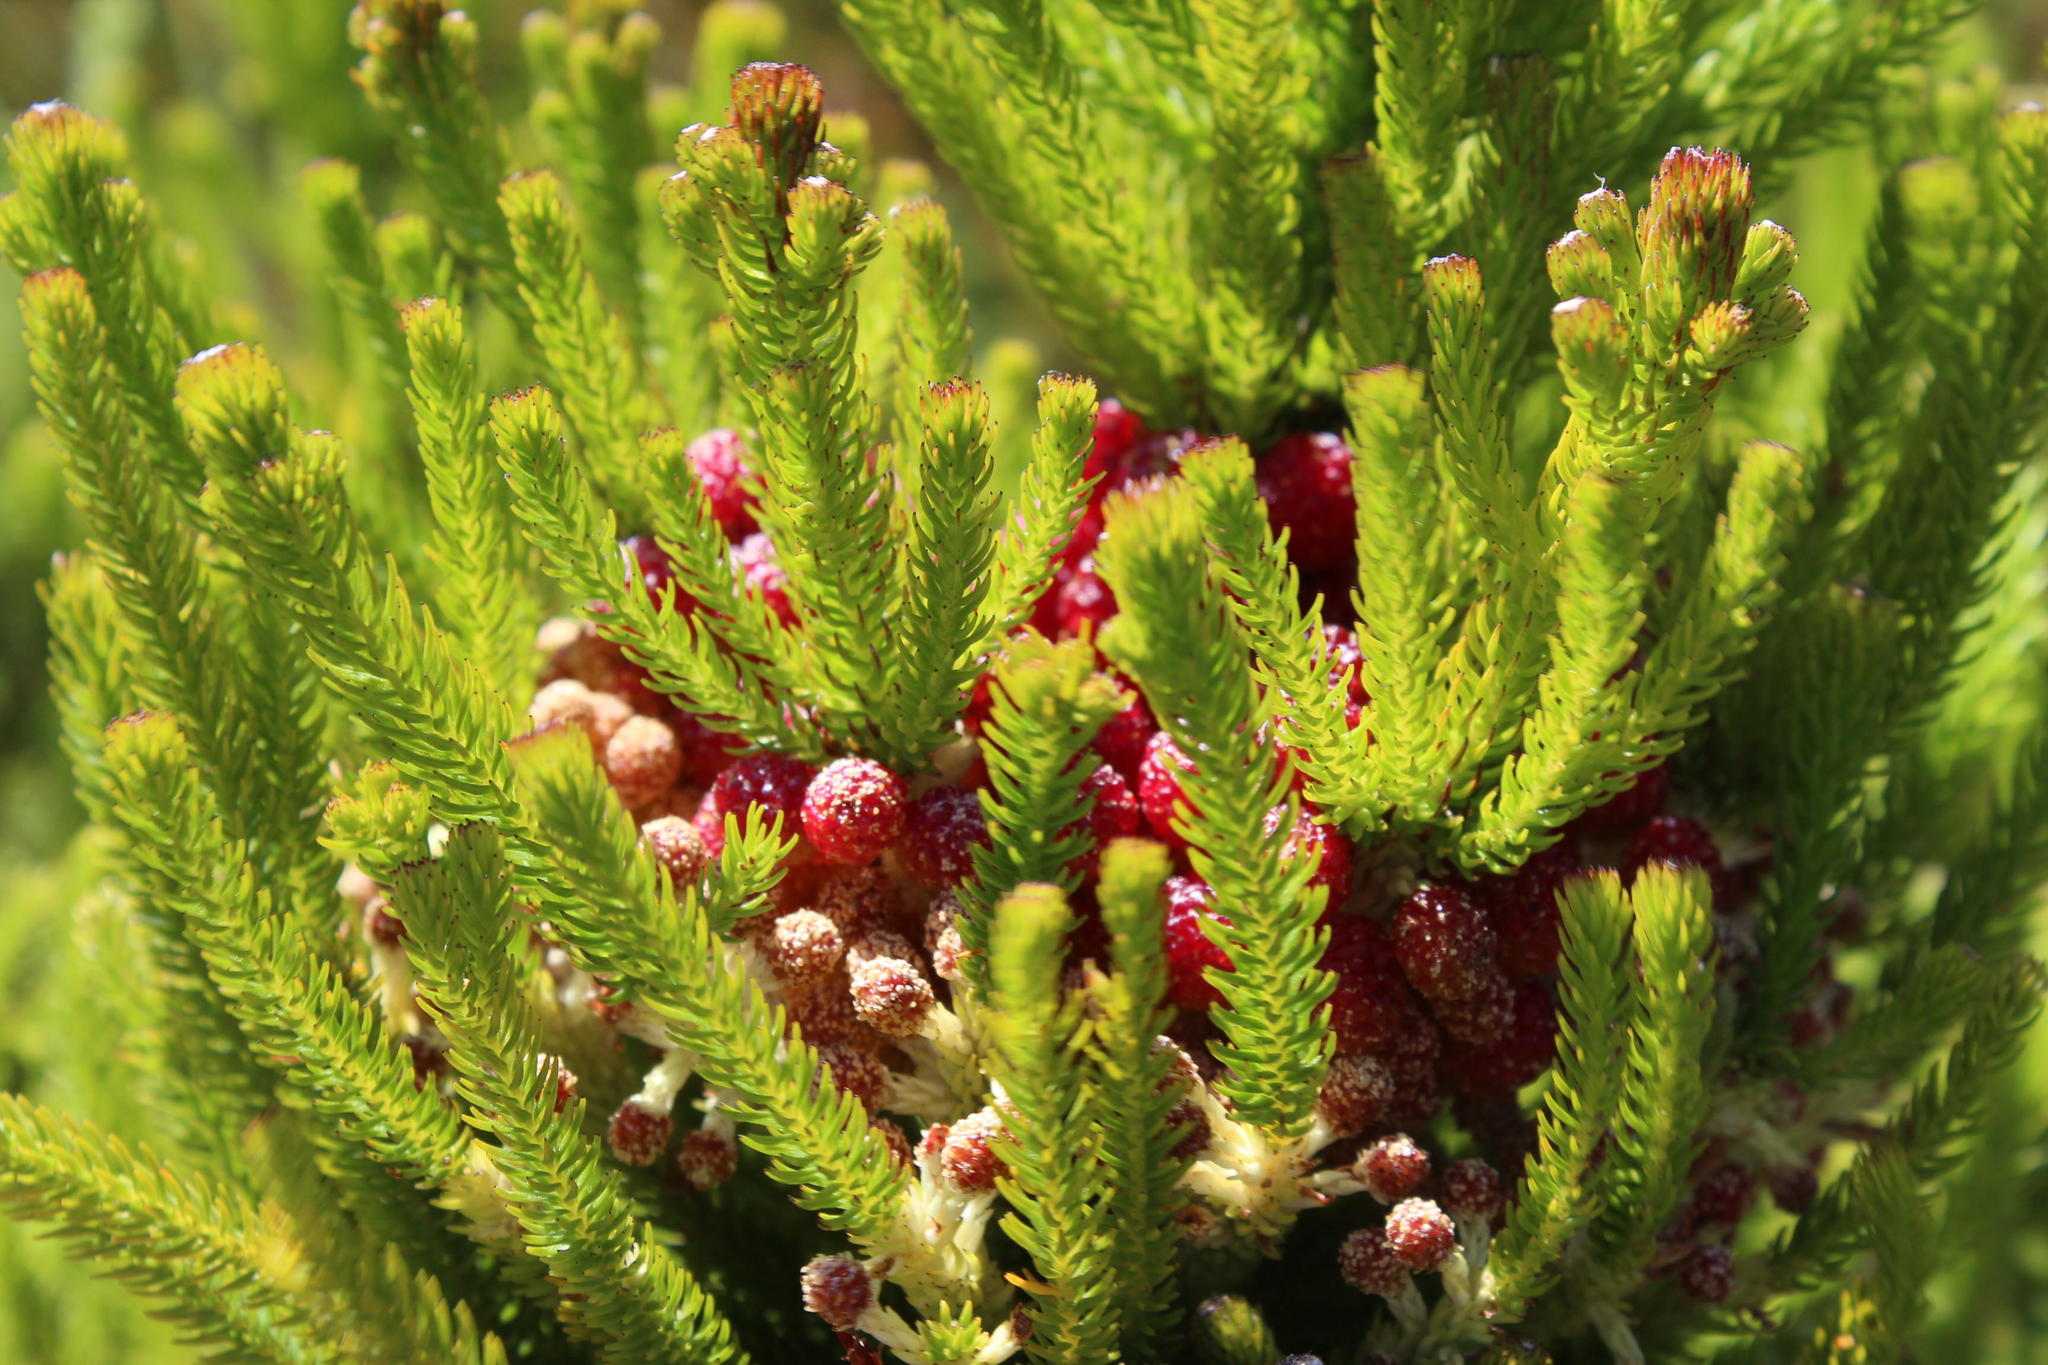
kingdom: Plantae
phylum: Tracheophyta
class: Magnoliopsida
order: Bruniales
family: Bruniaceae
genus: Berzelia
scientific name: Berzelia alopecurioides
